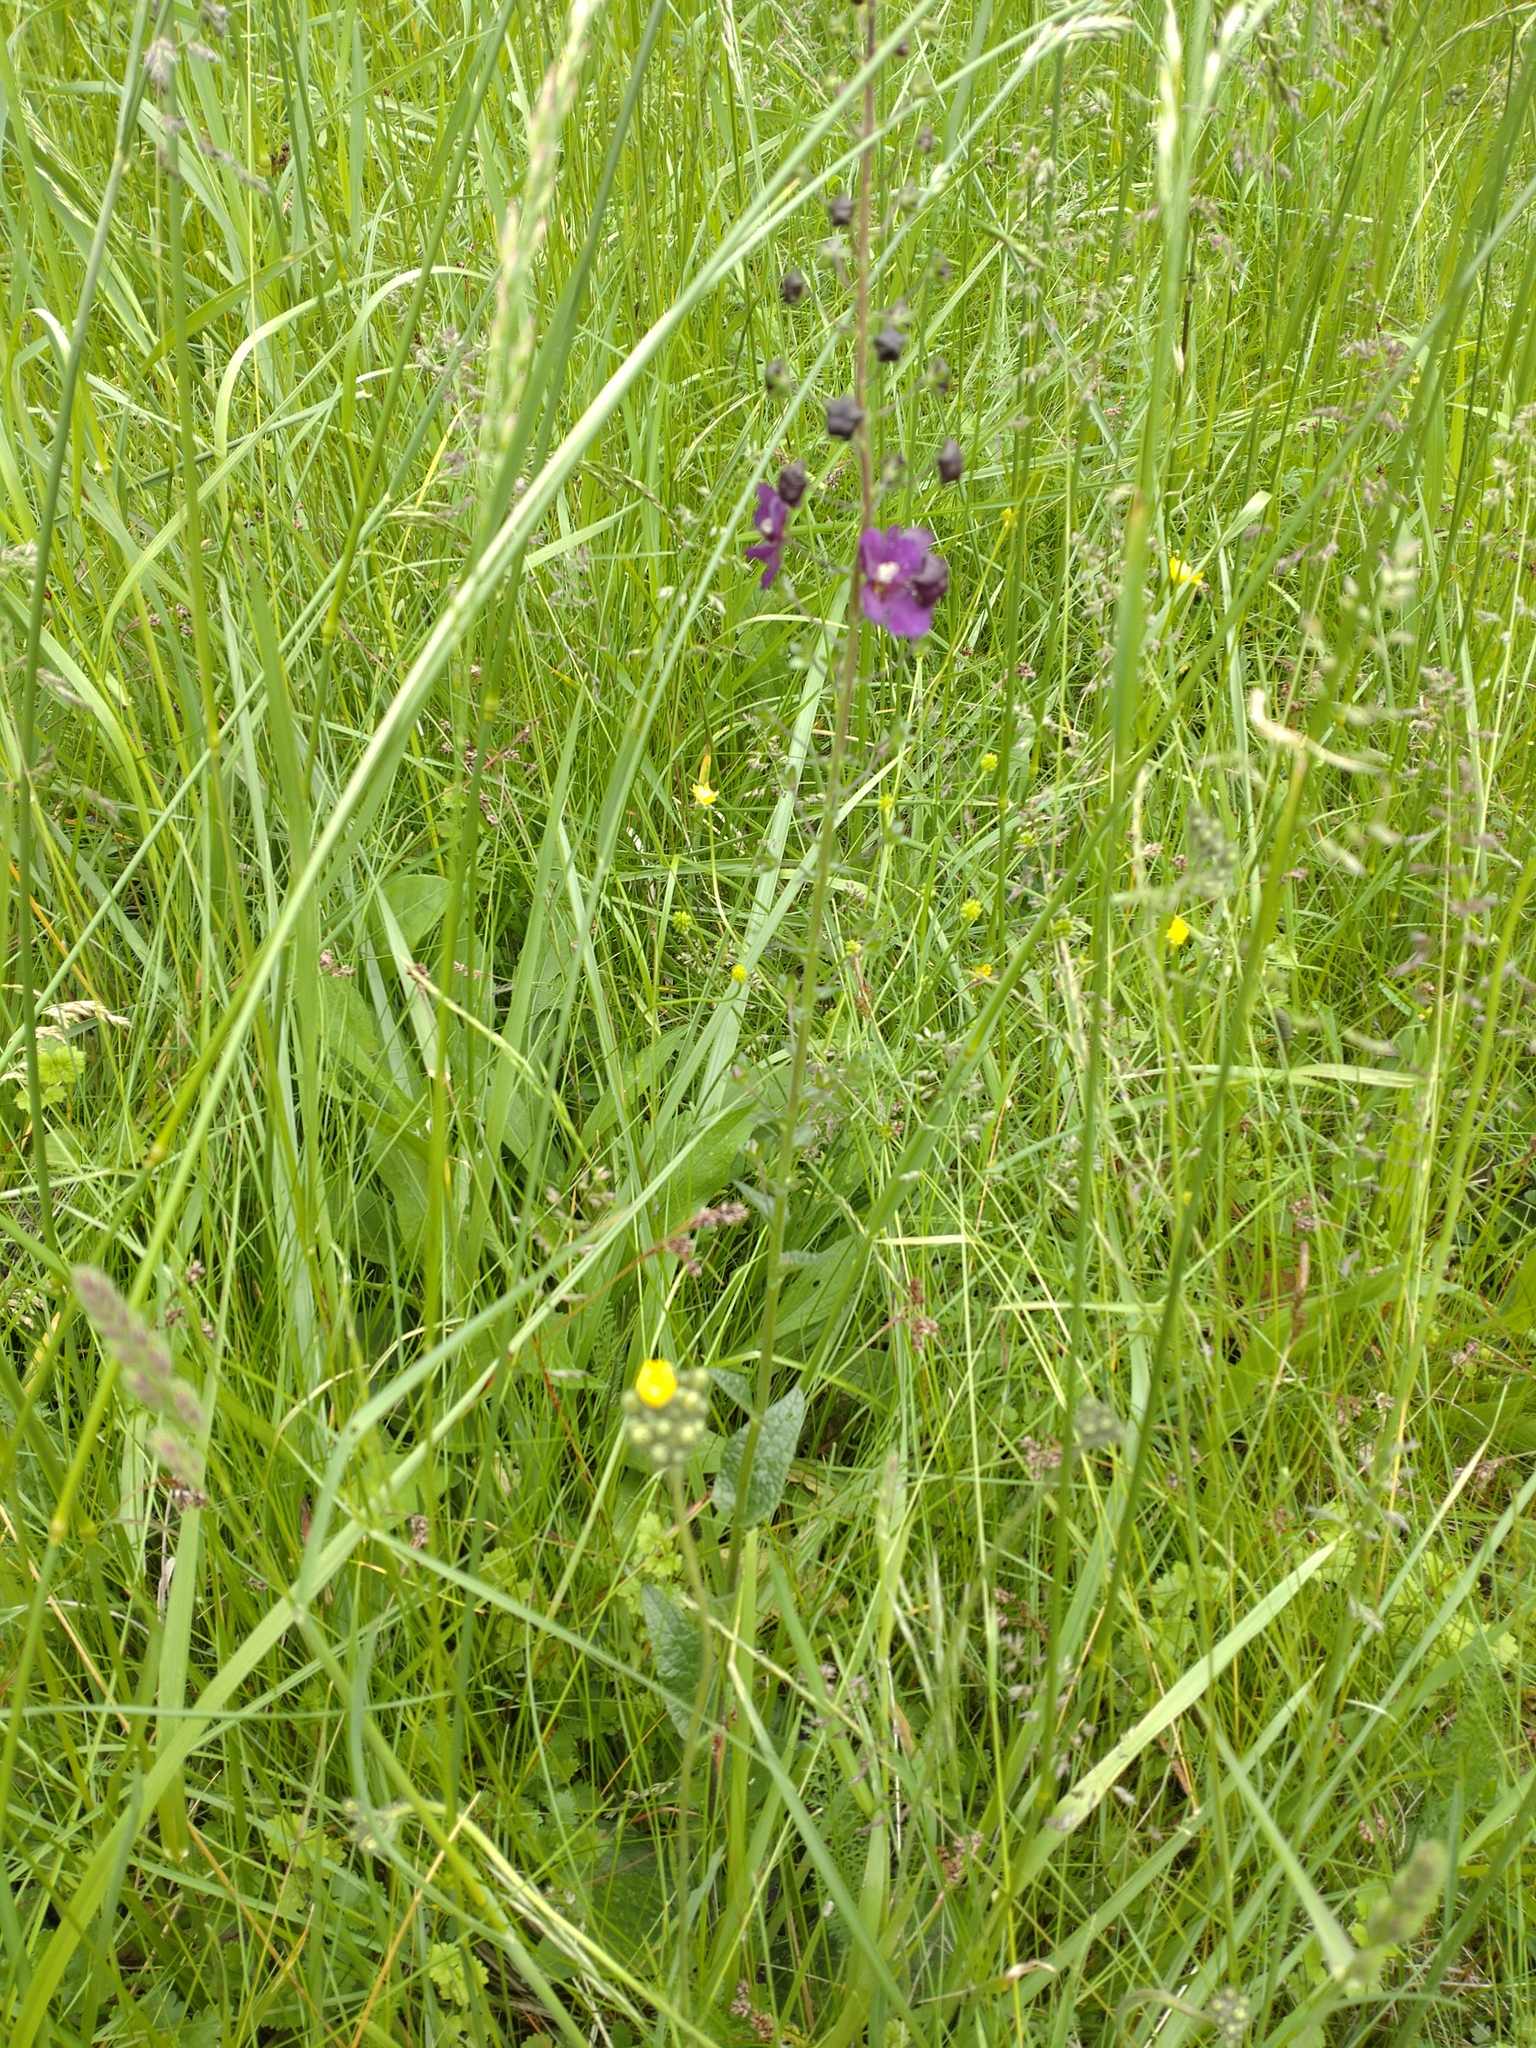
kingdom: Plantae
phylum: Tracheophyta
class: Magnoliopsida
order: Lamiales
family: Scrophulariaceae
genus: Verbascum
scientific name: Verbascum phoeniceum
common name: Purple mullein
